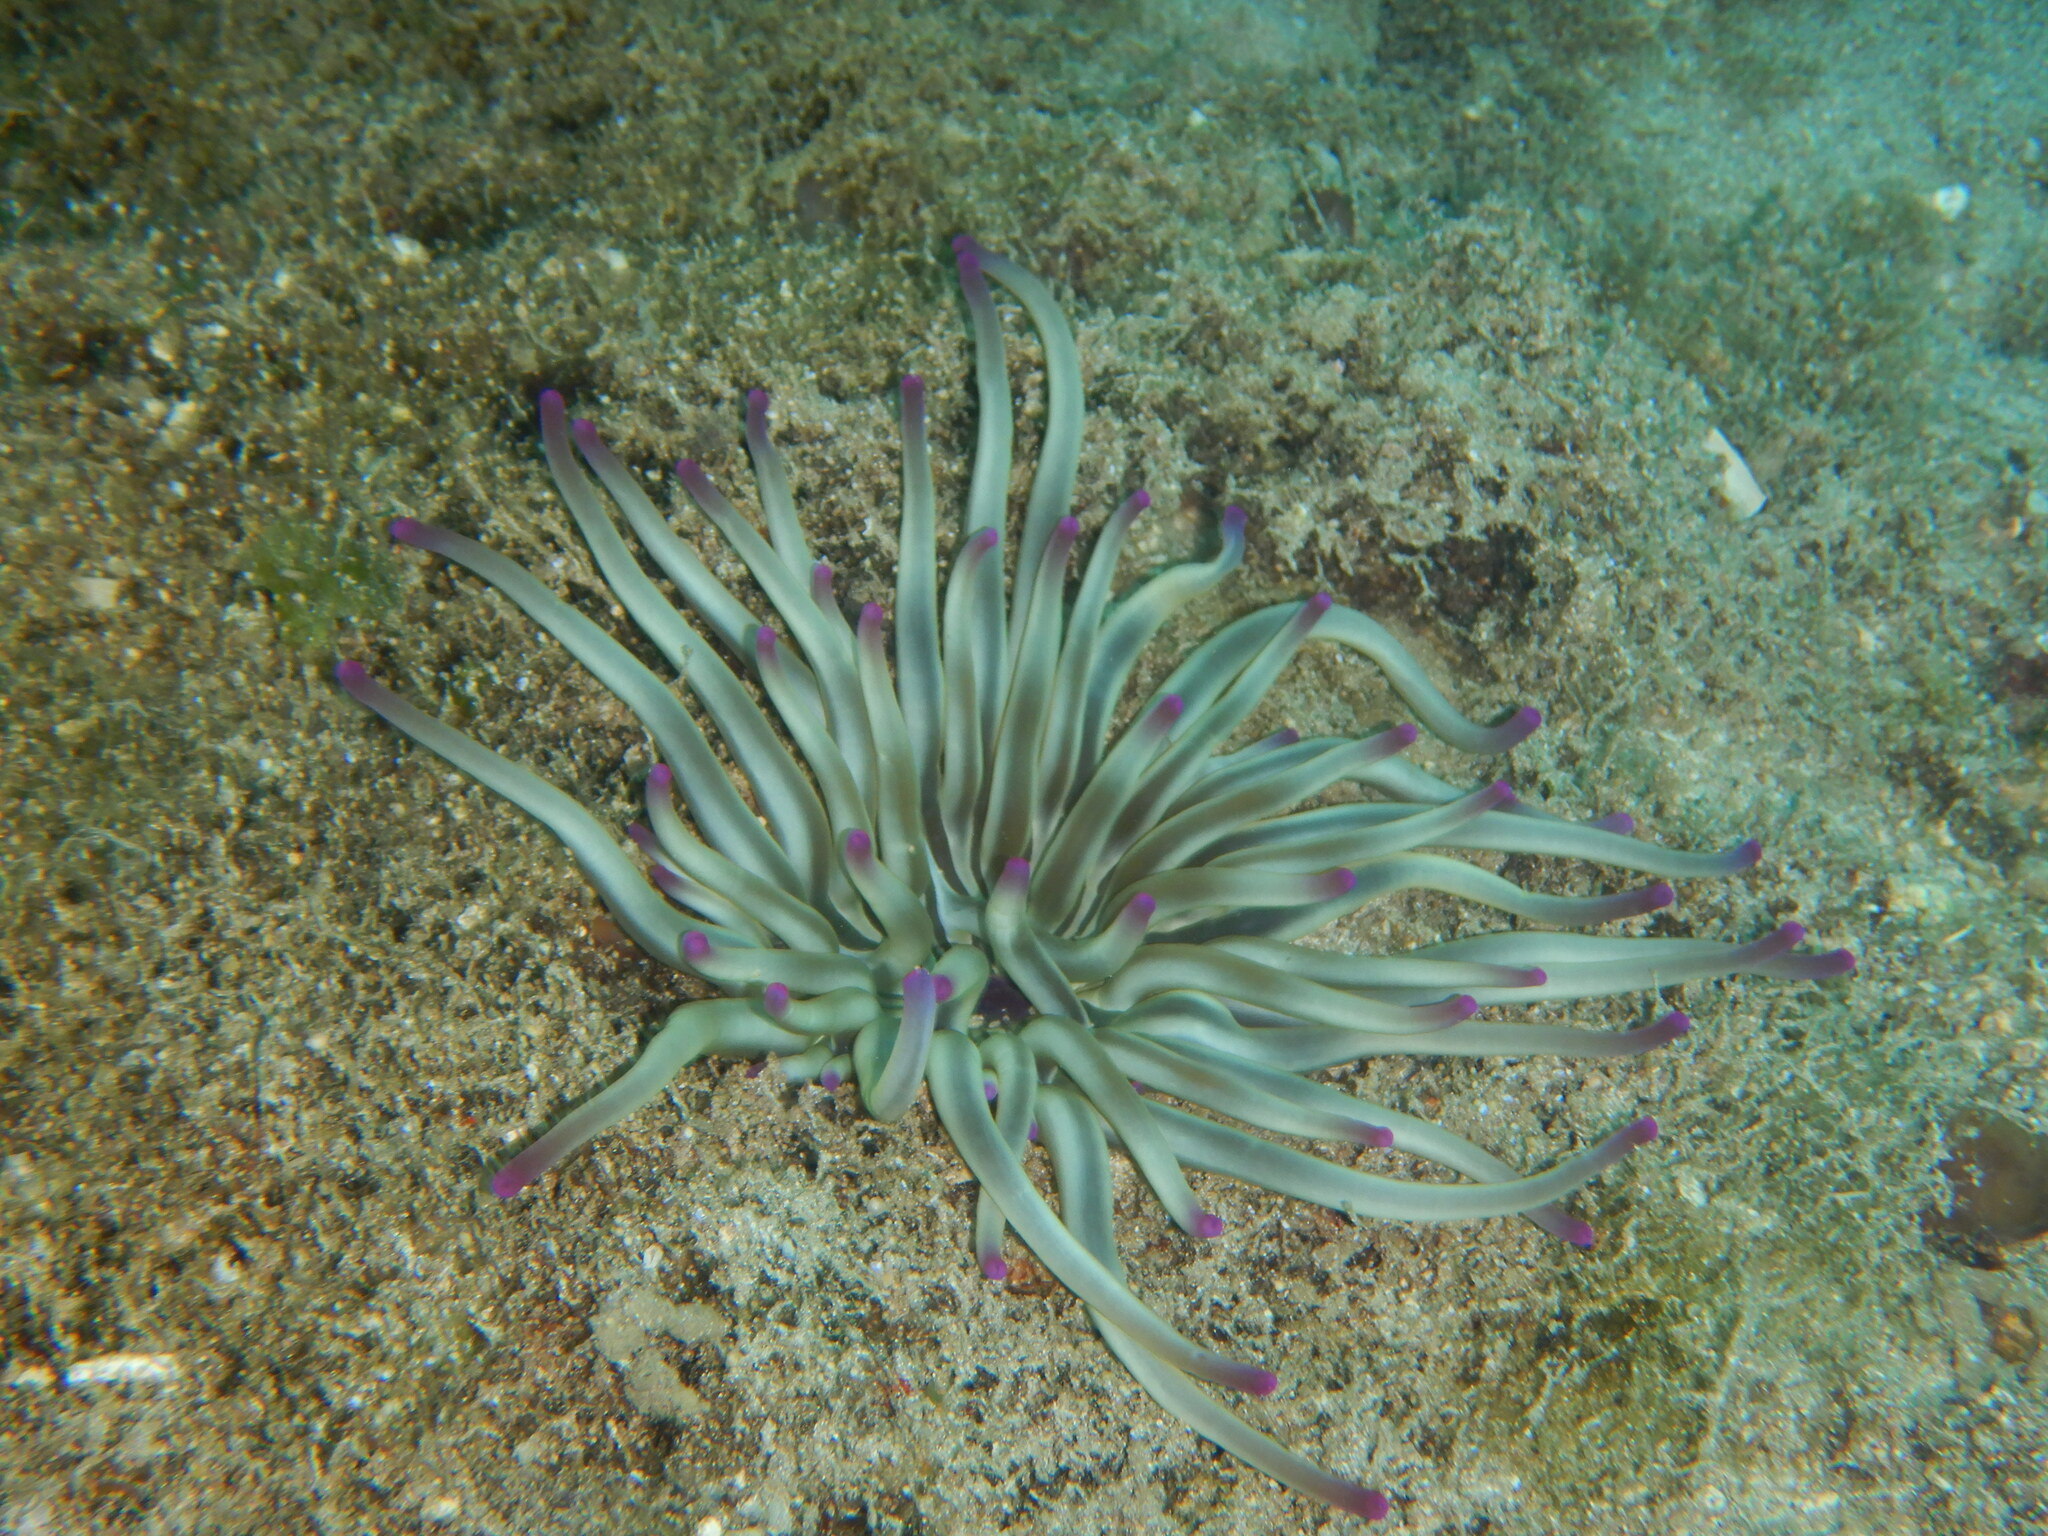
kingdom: Animalia
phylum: Cnidaria
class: Anthozoa
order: Actiniaria
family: Actiniidae
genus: Condylactis
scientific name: Condylactis aurantiaca
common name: Golden anemone
